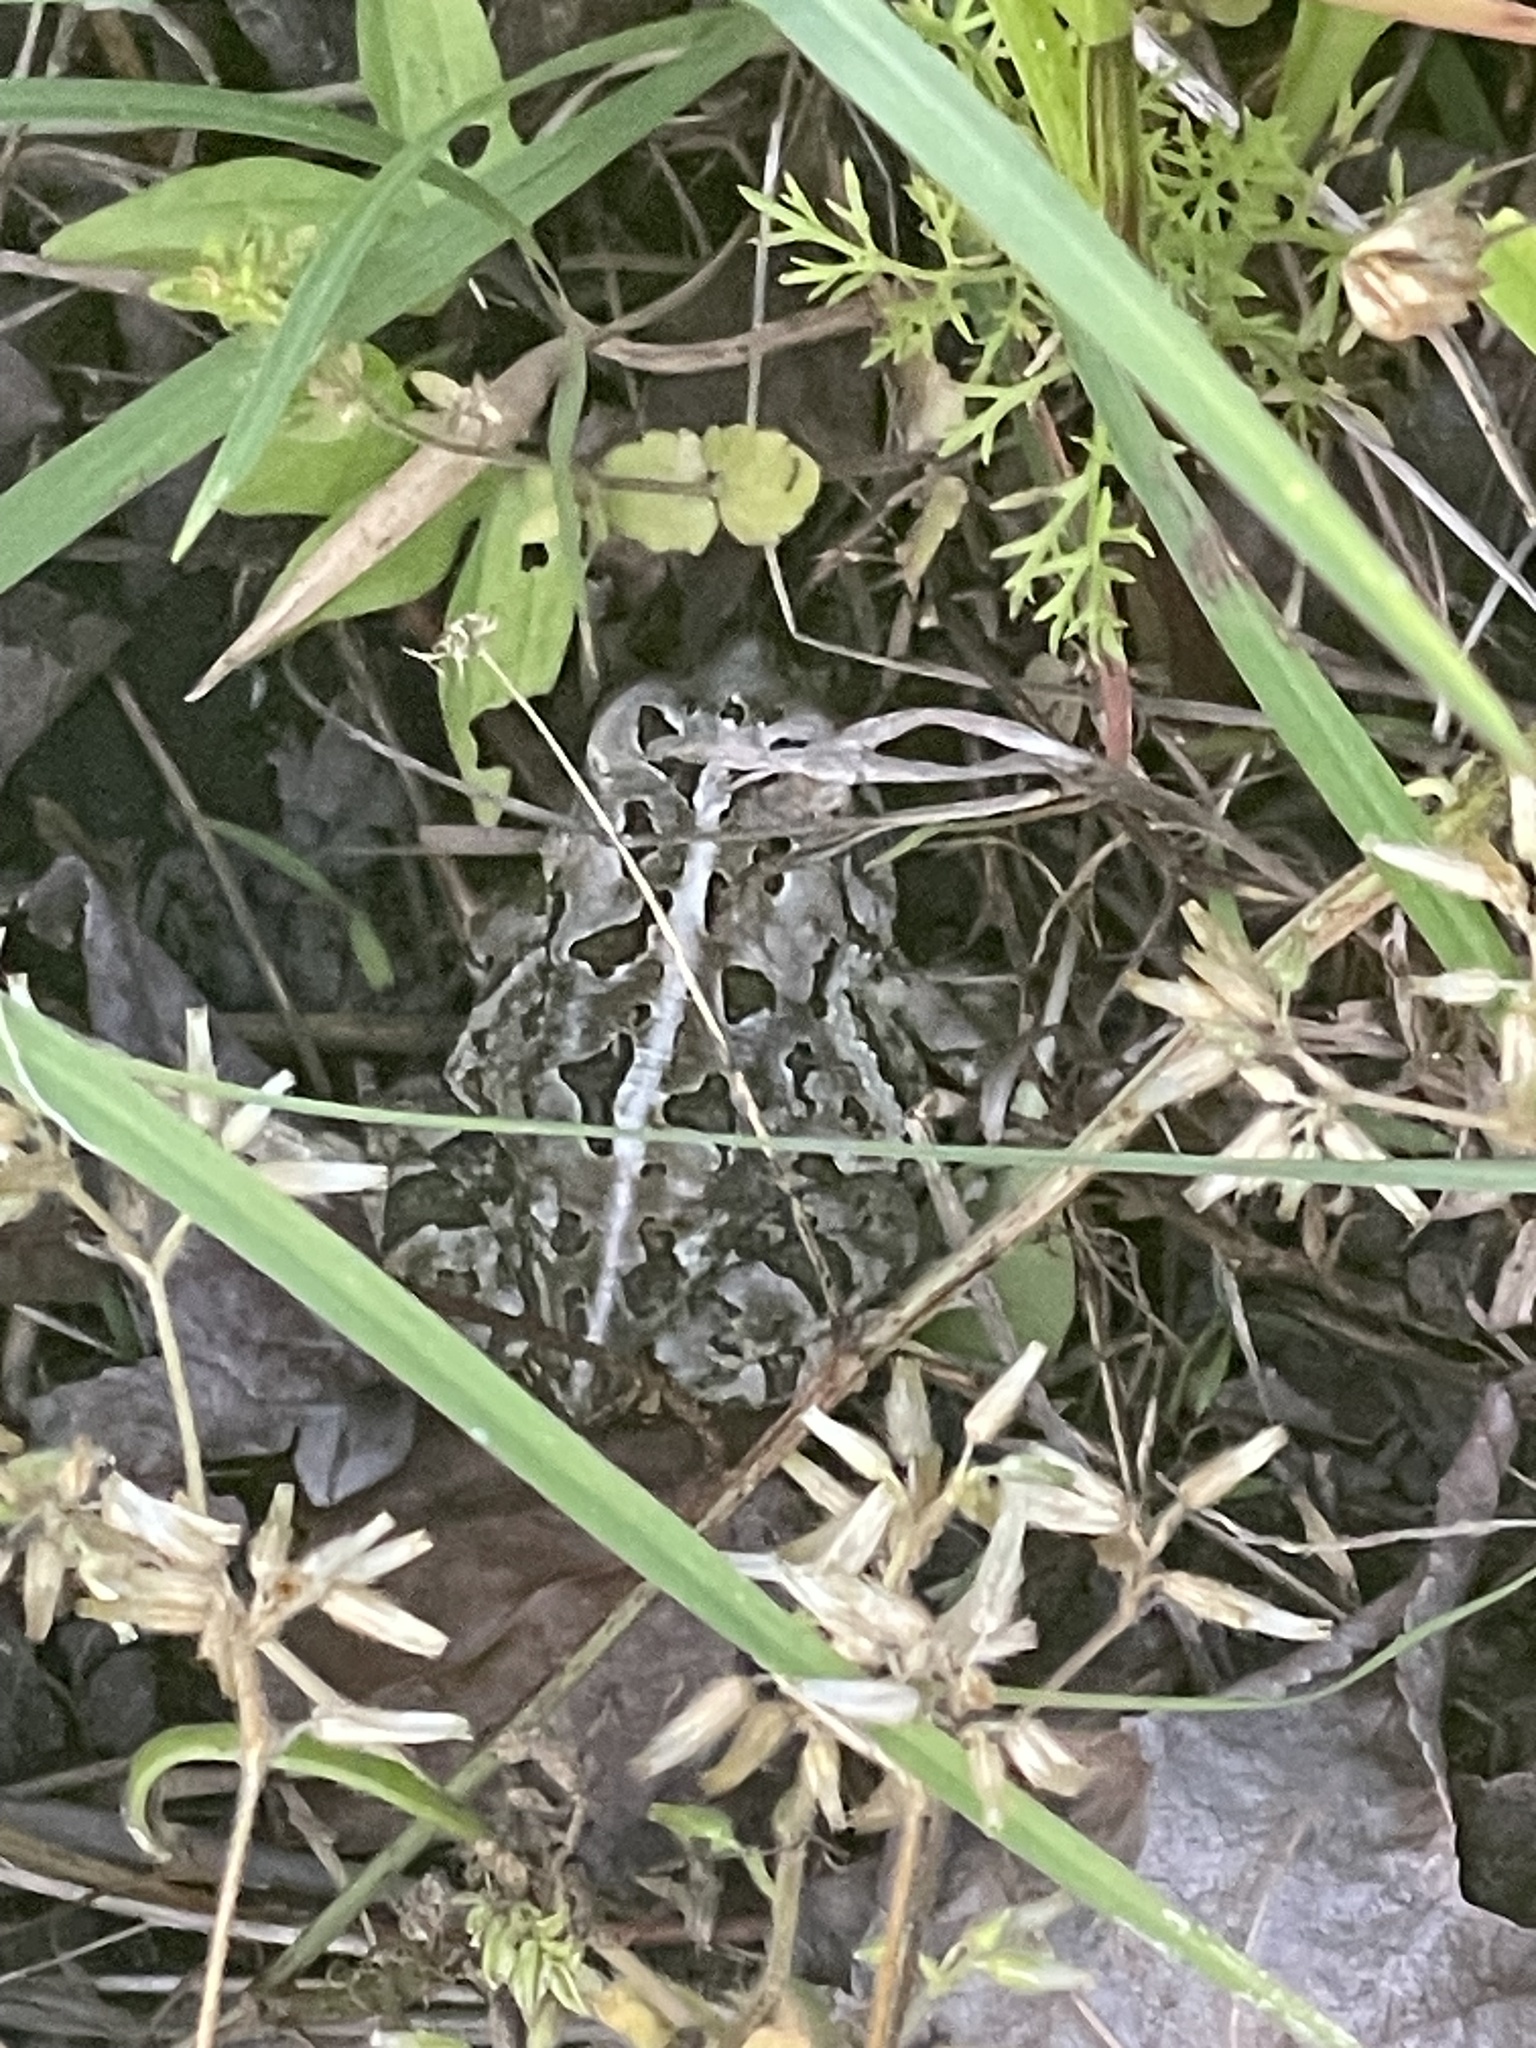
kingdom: Animalia
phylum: Chordata
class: Amphibia
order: Anura
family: Bufonidae
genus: Anaxyrus
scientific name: Anaxyrus fowleri
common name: Fowler's toad
